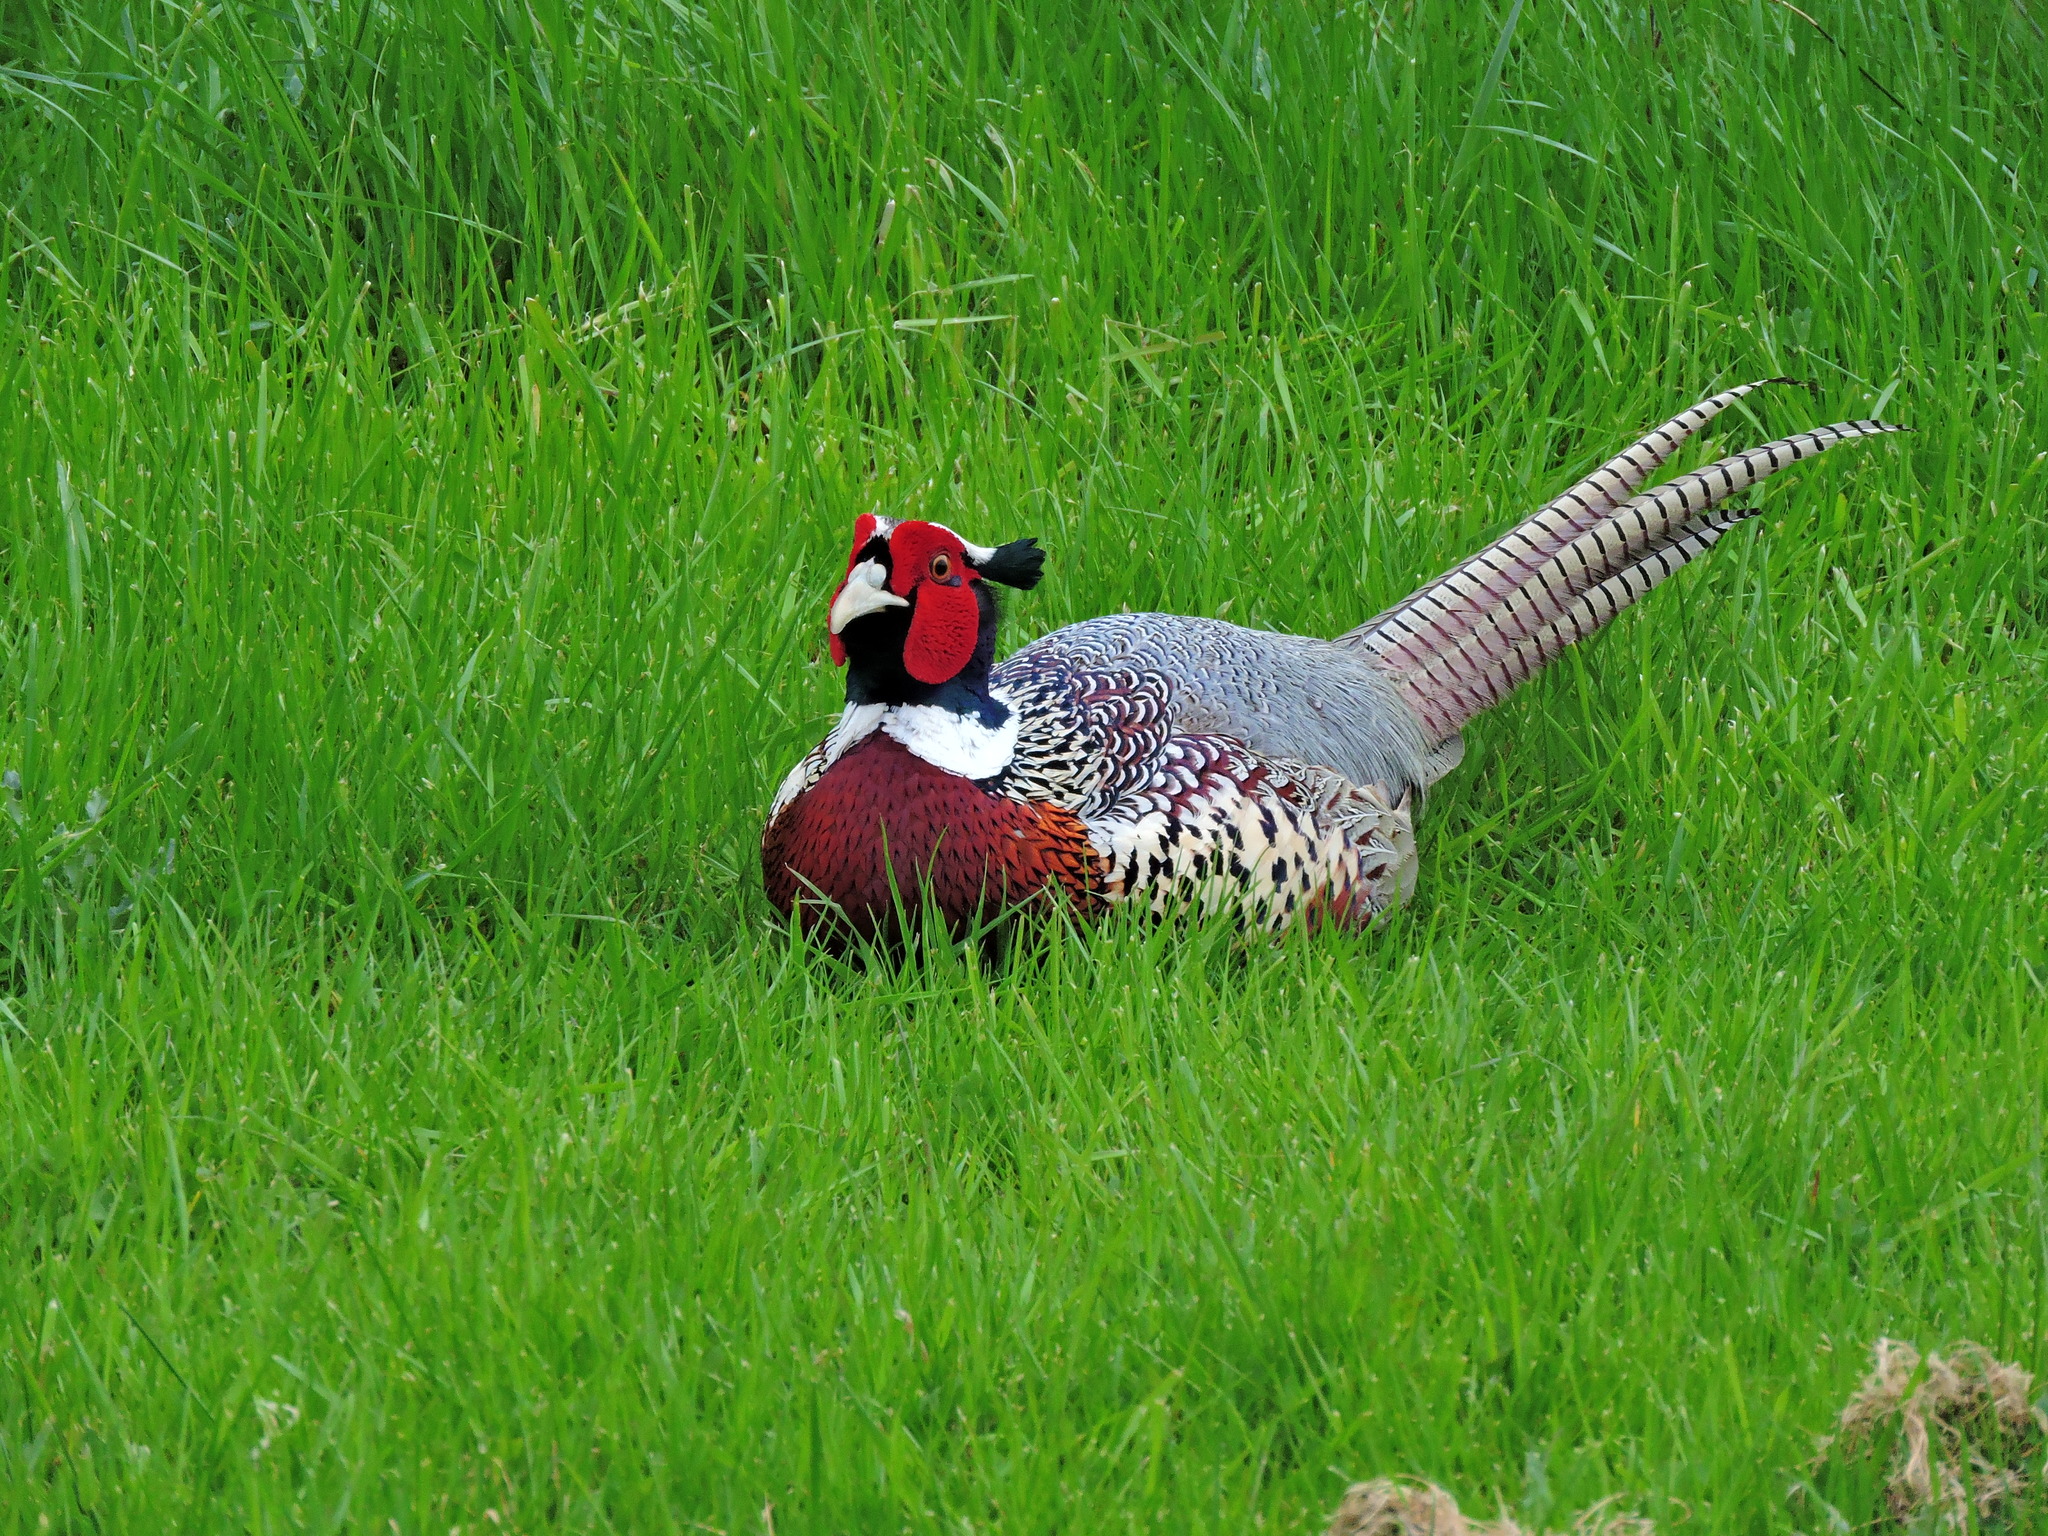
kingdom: Animalia
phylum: Chordata
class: Aves
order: Galliformes
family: Phasianidae
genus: Phasianus
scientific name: Phasianus colchicus
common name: Common pheasant
